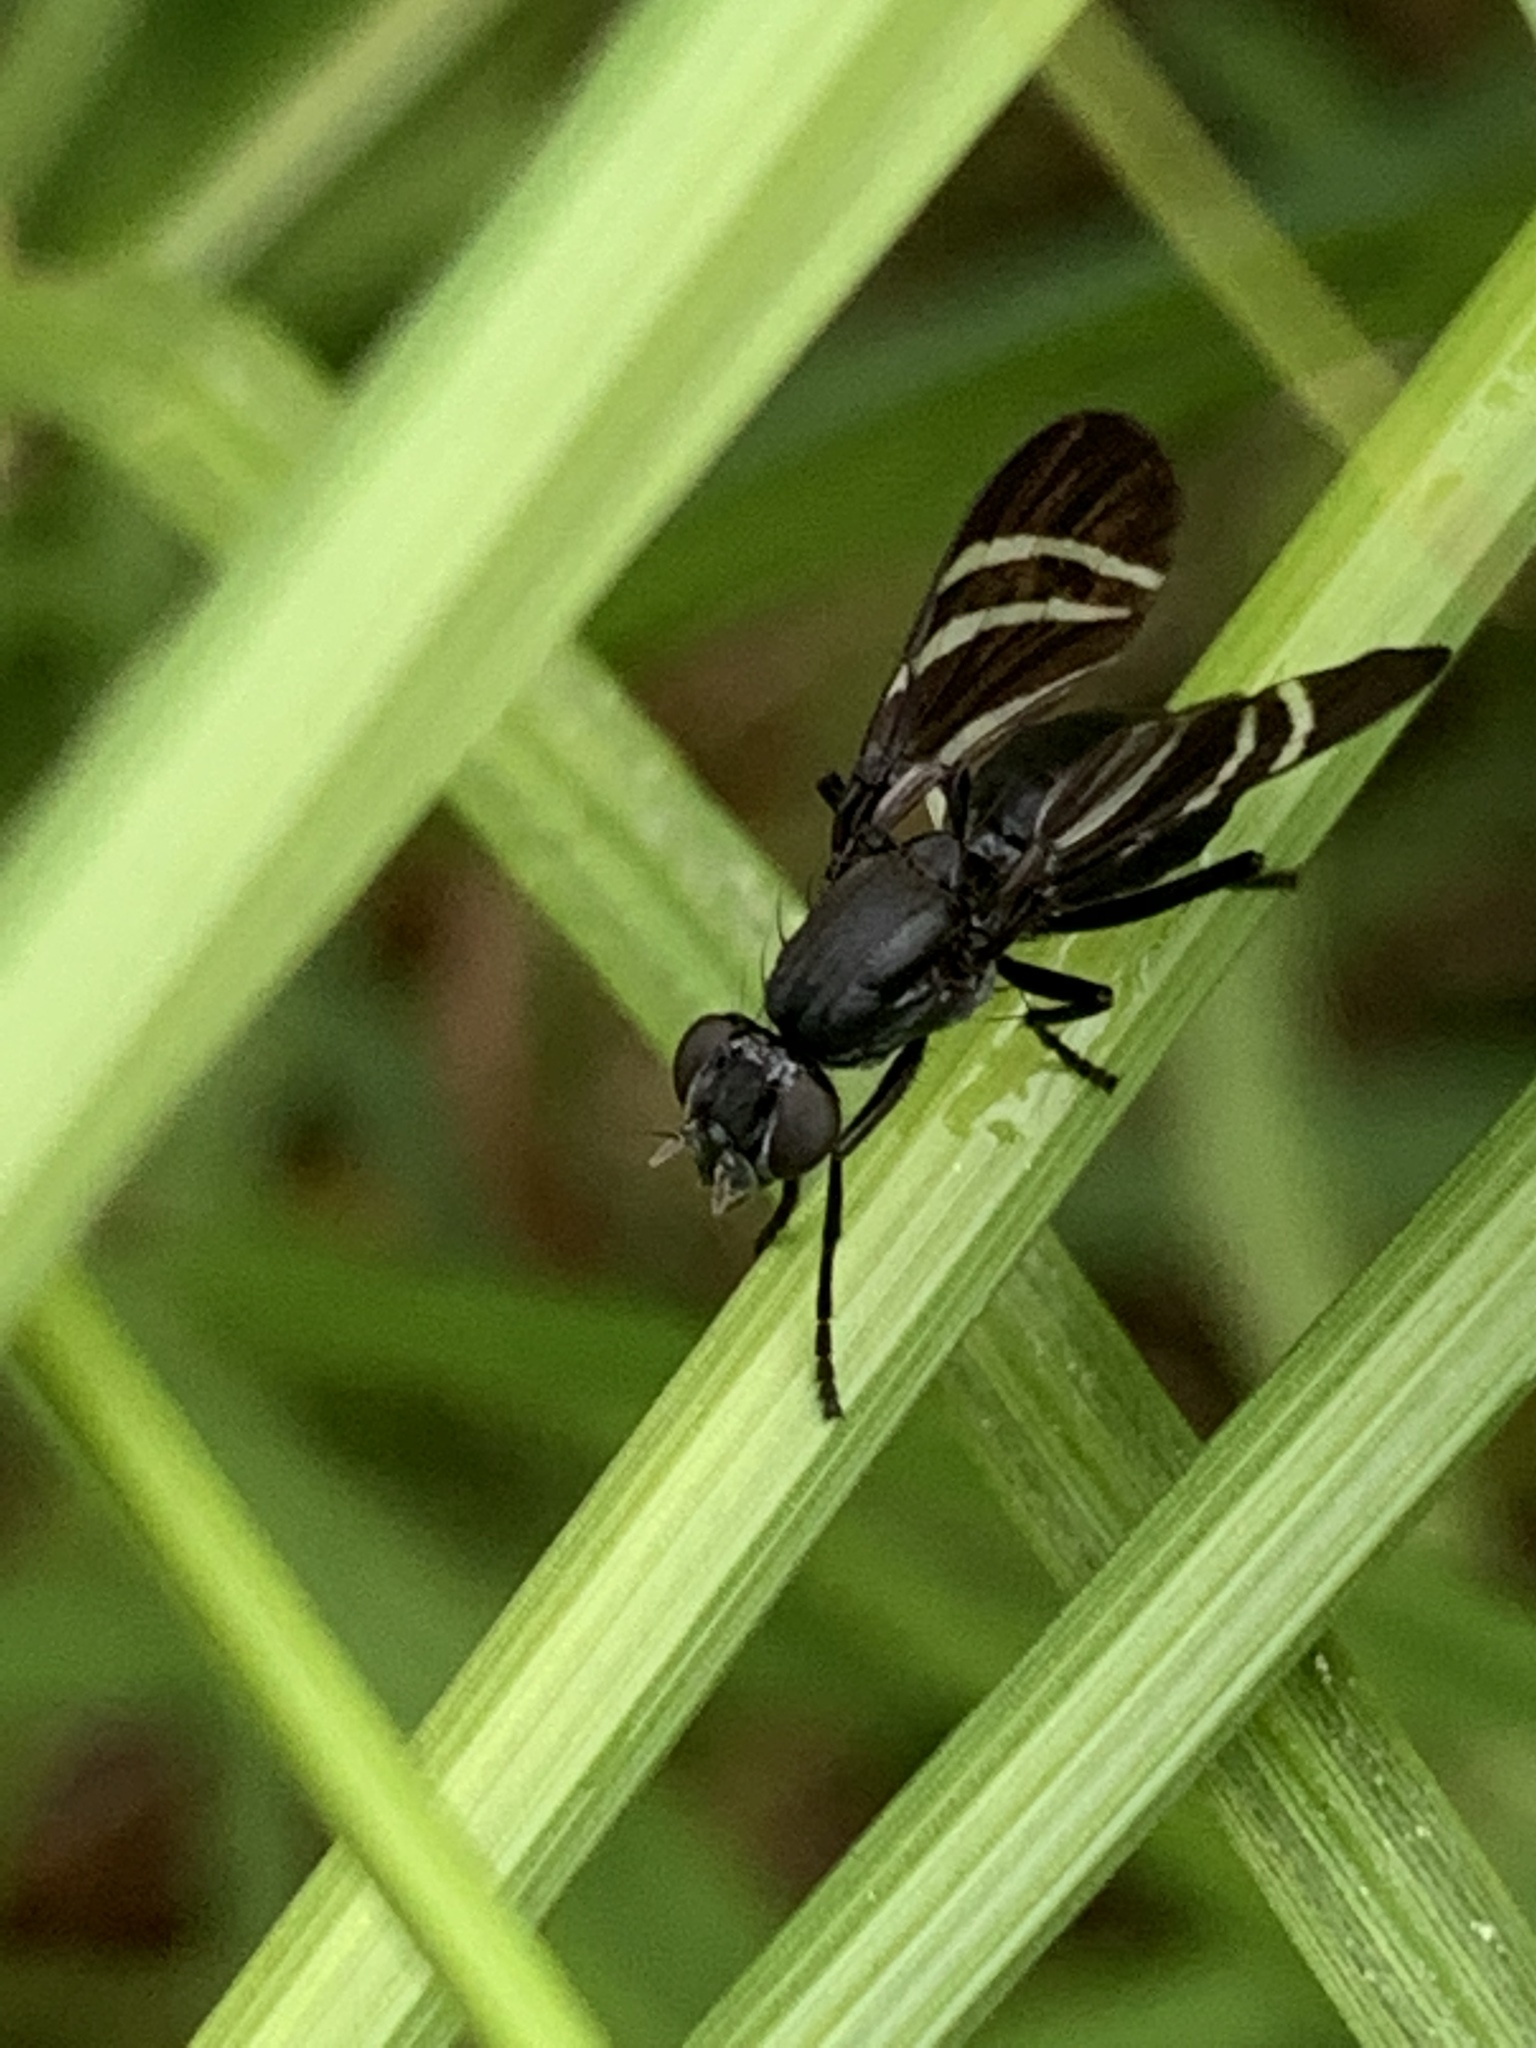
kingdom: Animalia
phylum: Arthropoda
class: Insecta
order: Diptera
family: Ulidiidae
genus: Tritoxa
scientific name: Tritoxa flexa
